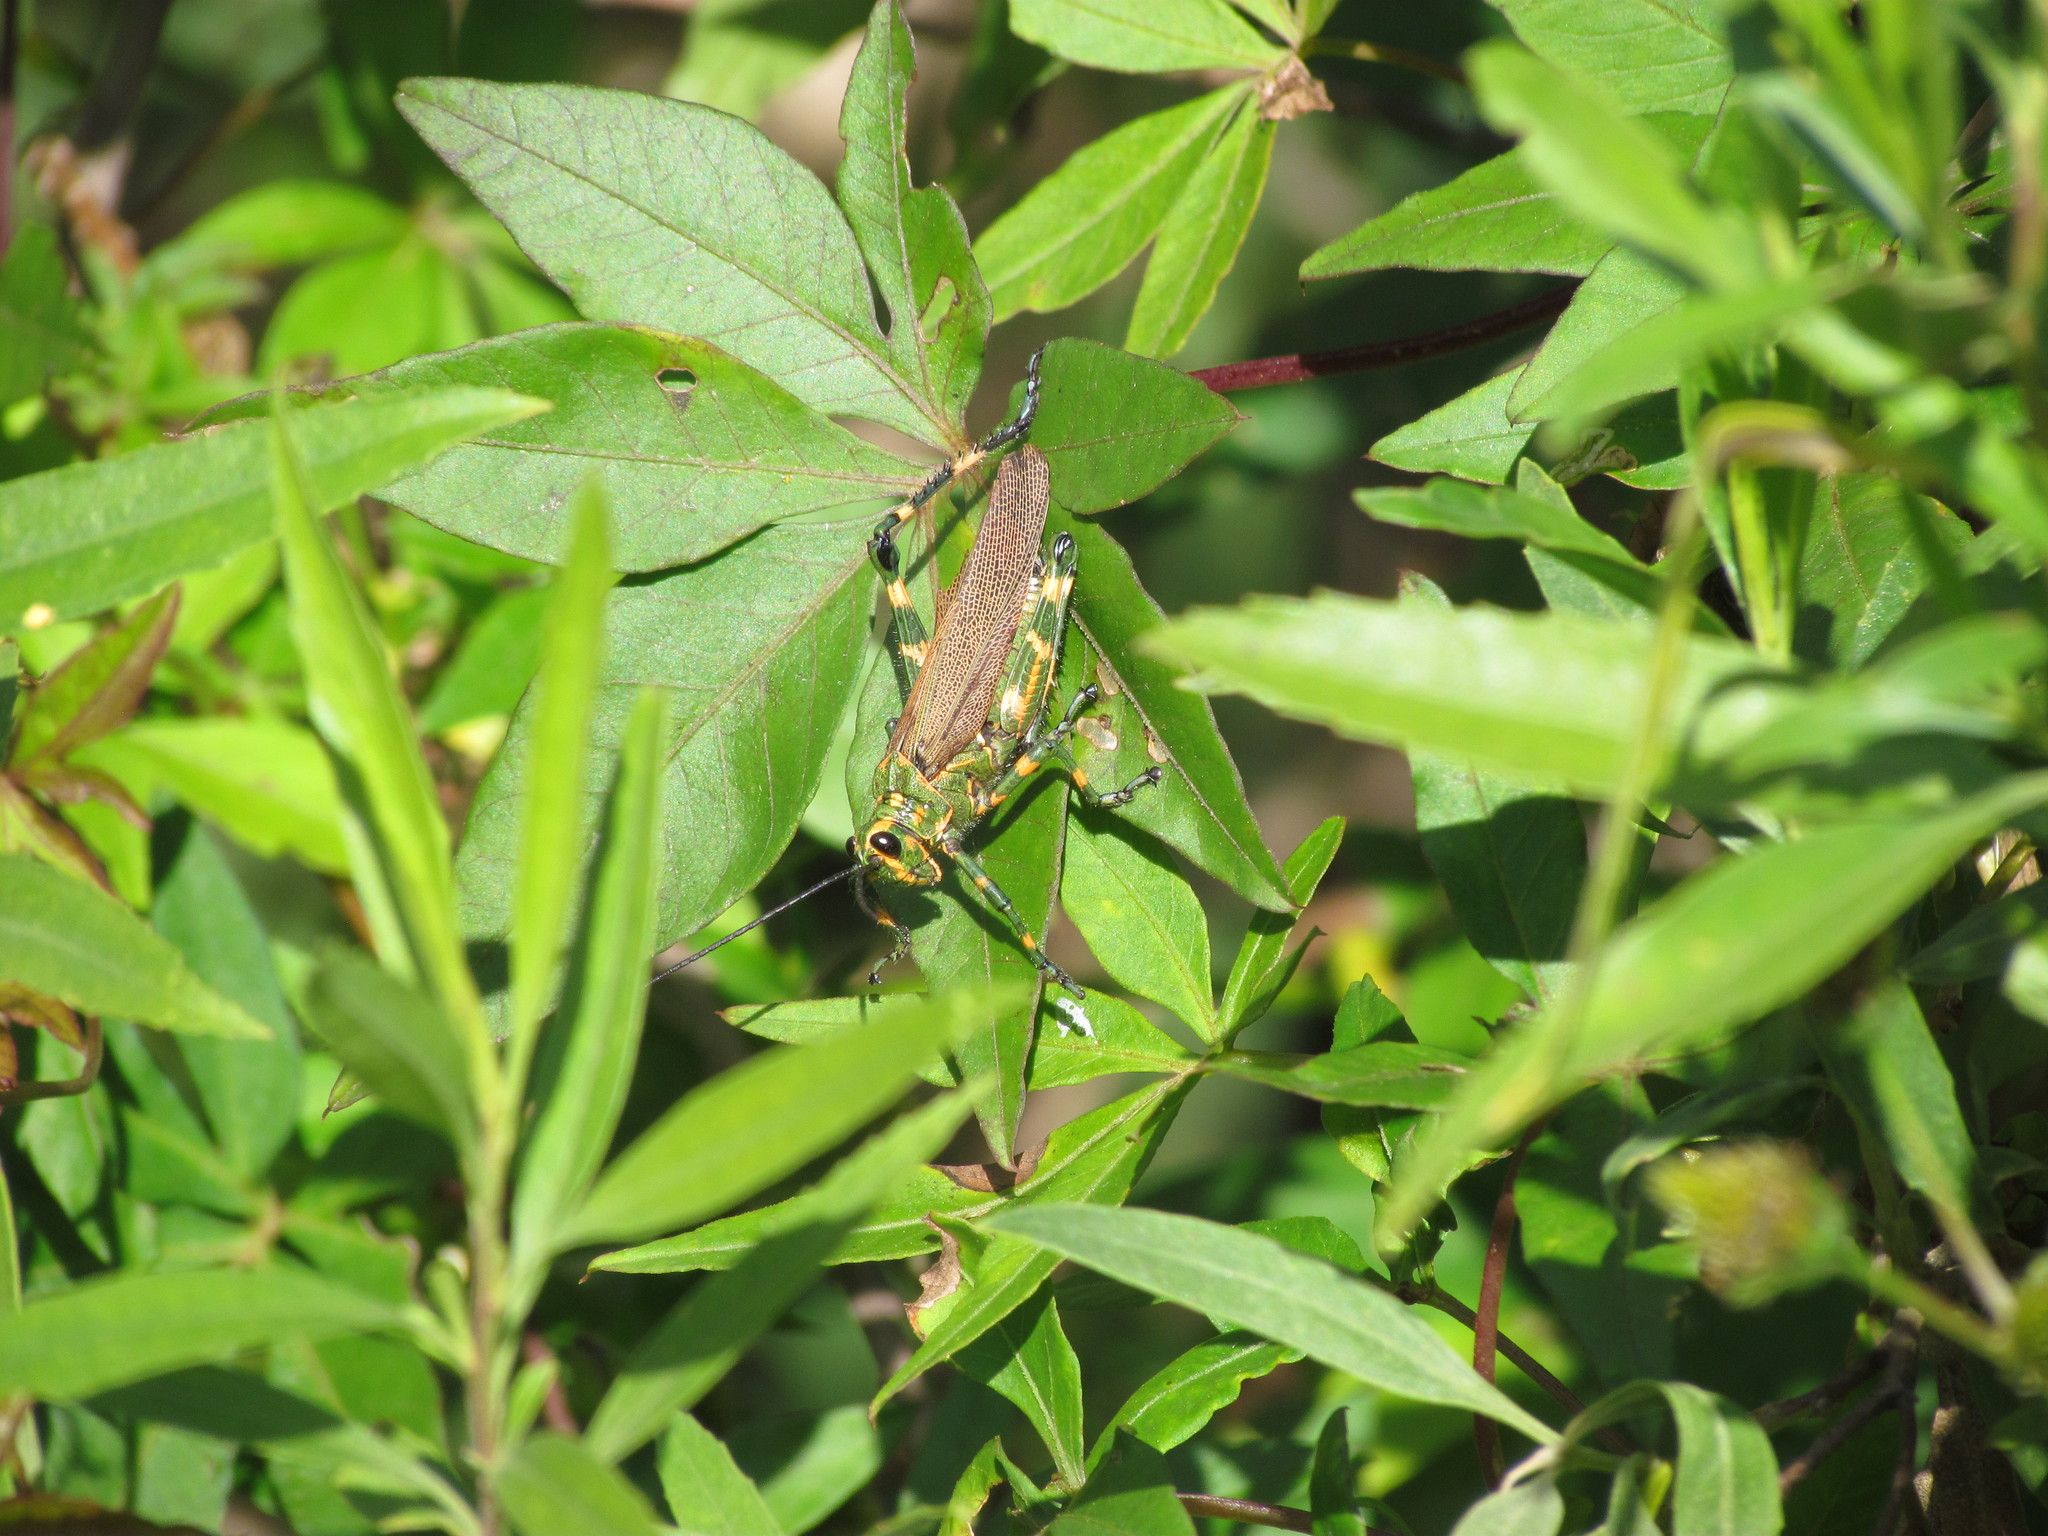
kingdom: Animalia
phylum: Arthropoda
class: Insecta
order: Orthoptera
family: Romaleidae
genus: Chromacris
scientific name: Chromacris speciosa
